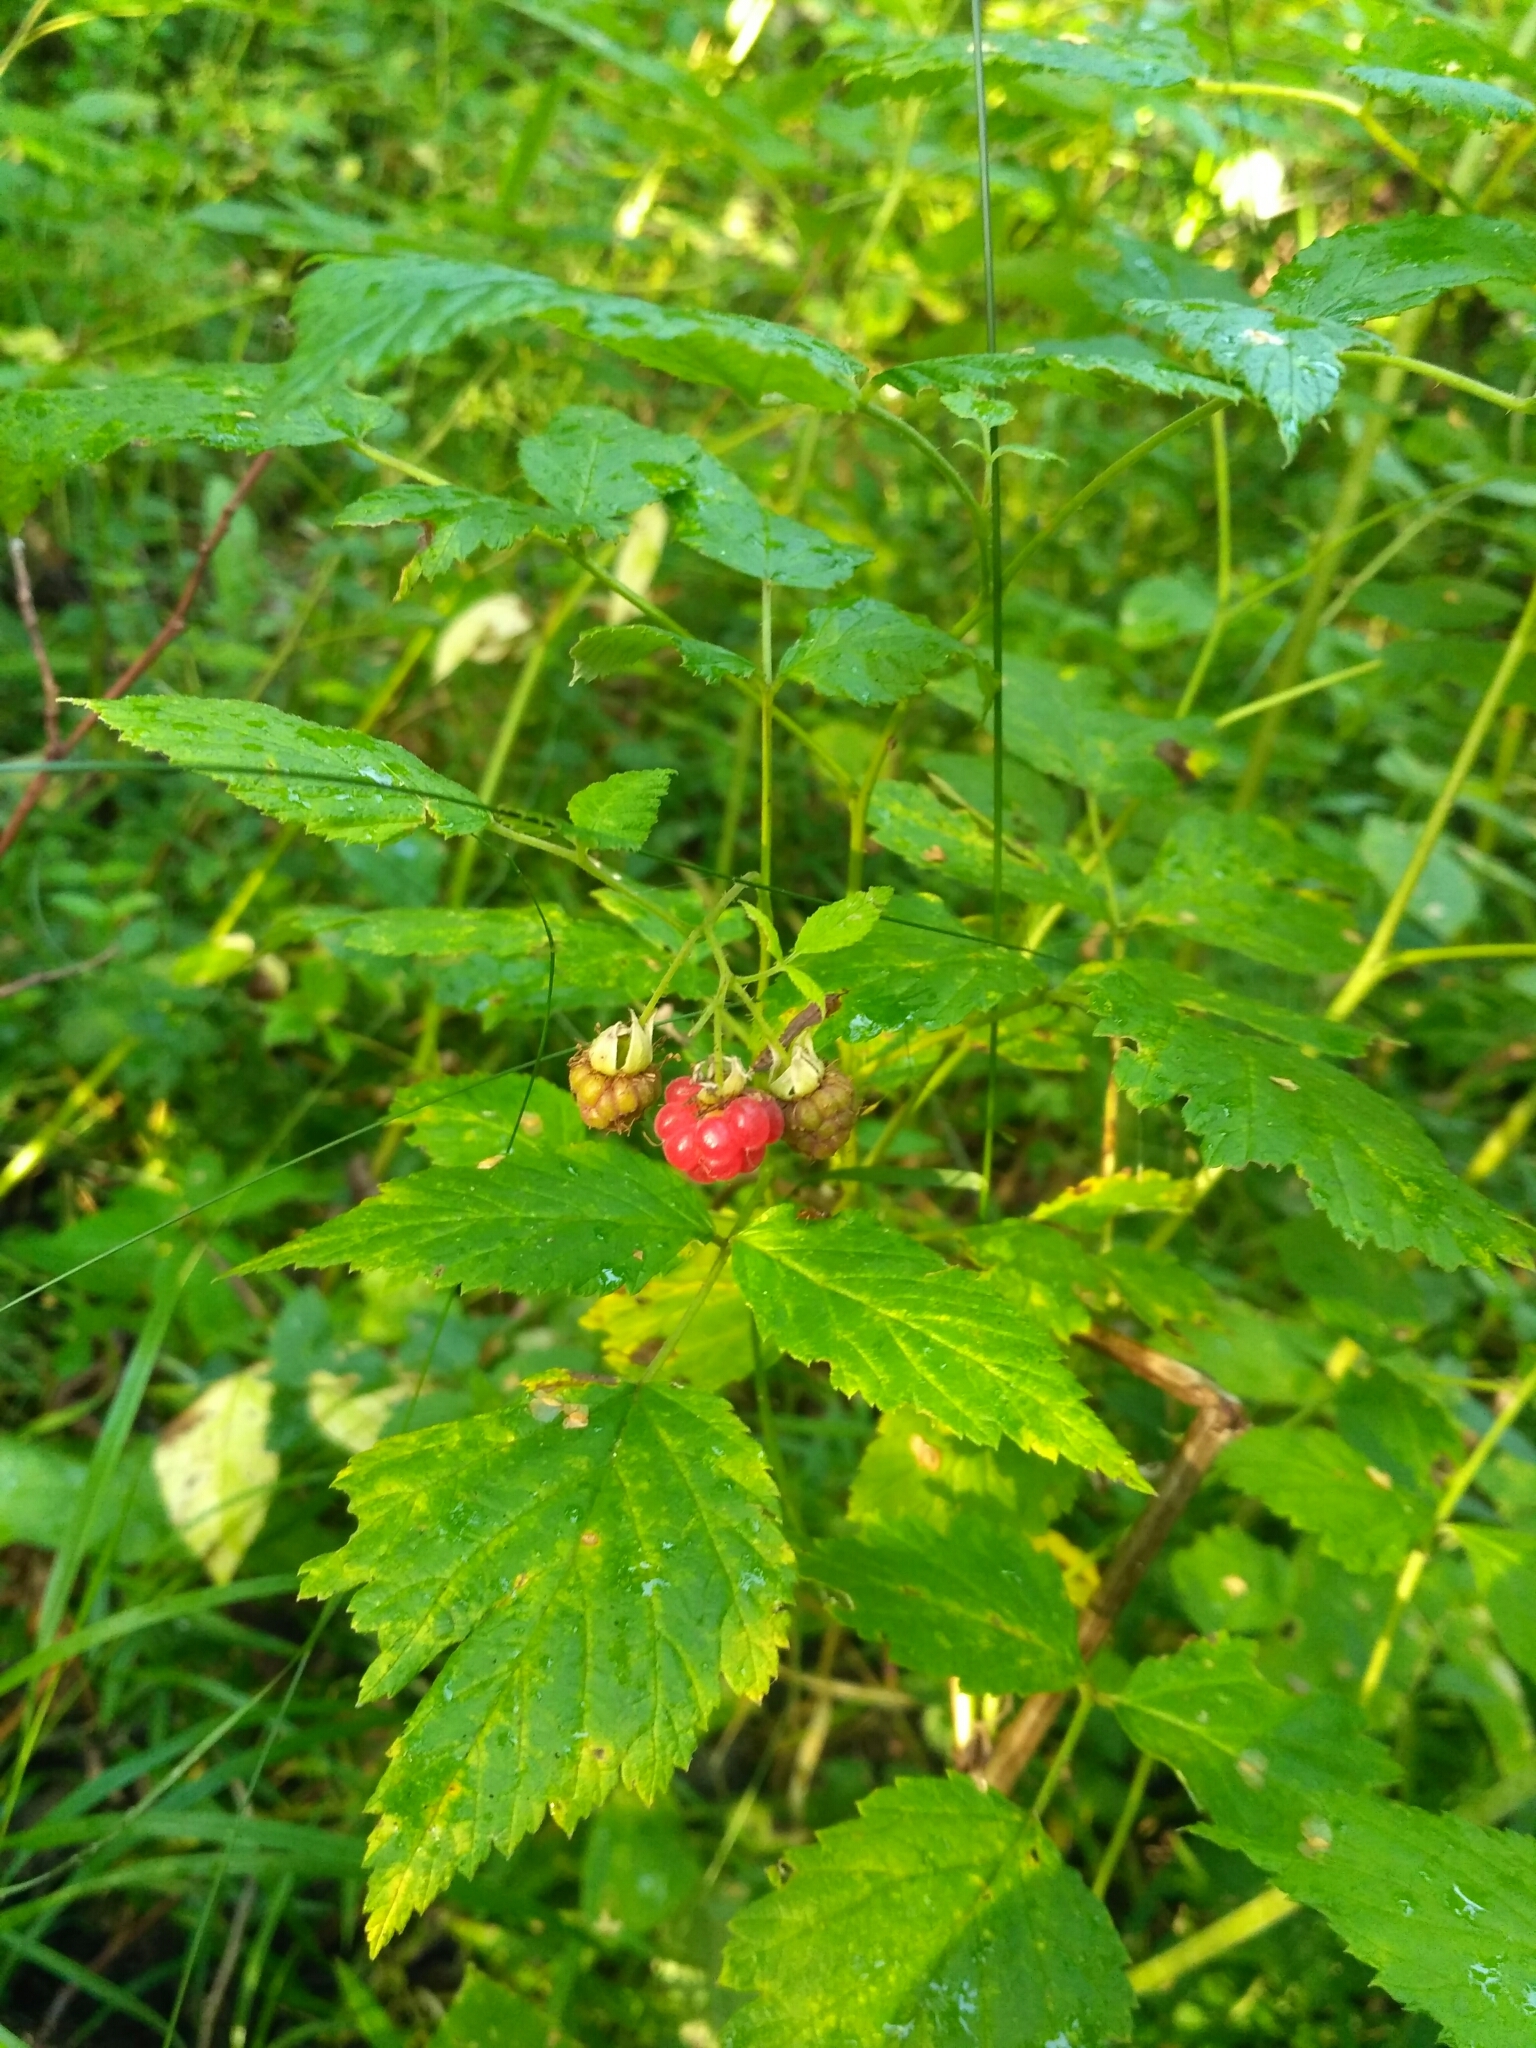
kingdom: Plantae
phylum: Tracheophyta
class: Magnoliopsida
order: Rosales
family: Rosaceae
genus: Rubus
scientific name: Rubus idaeus
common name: Raspberry
